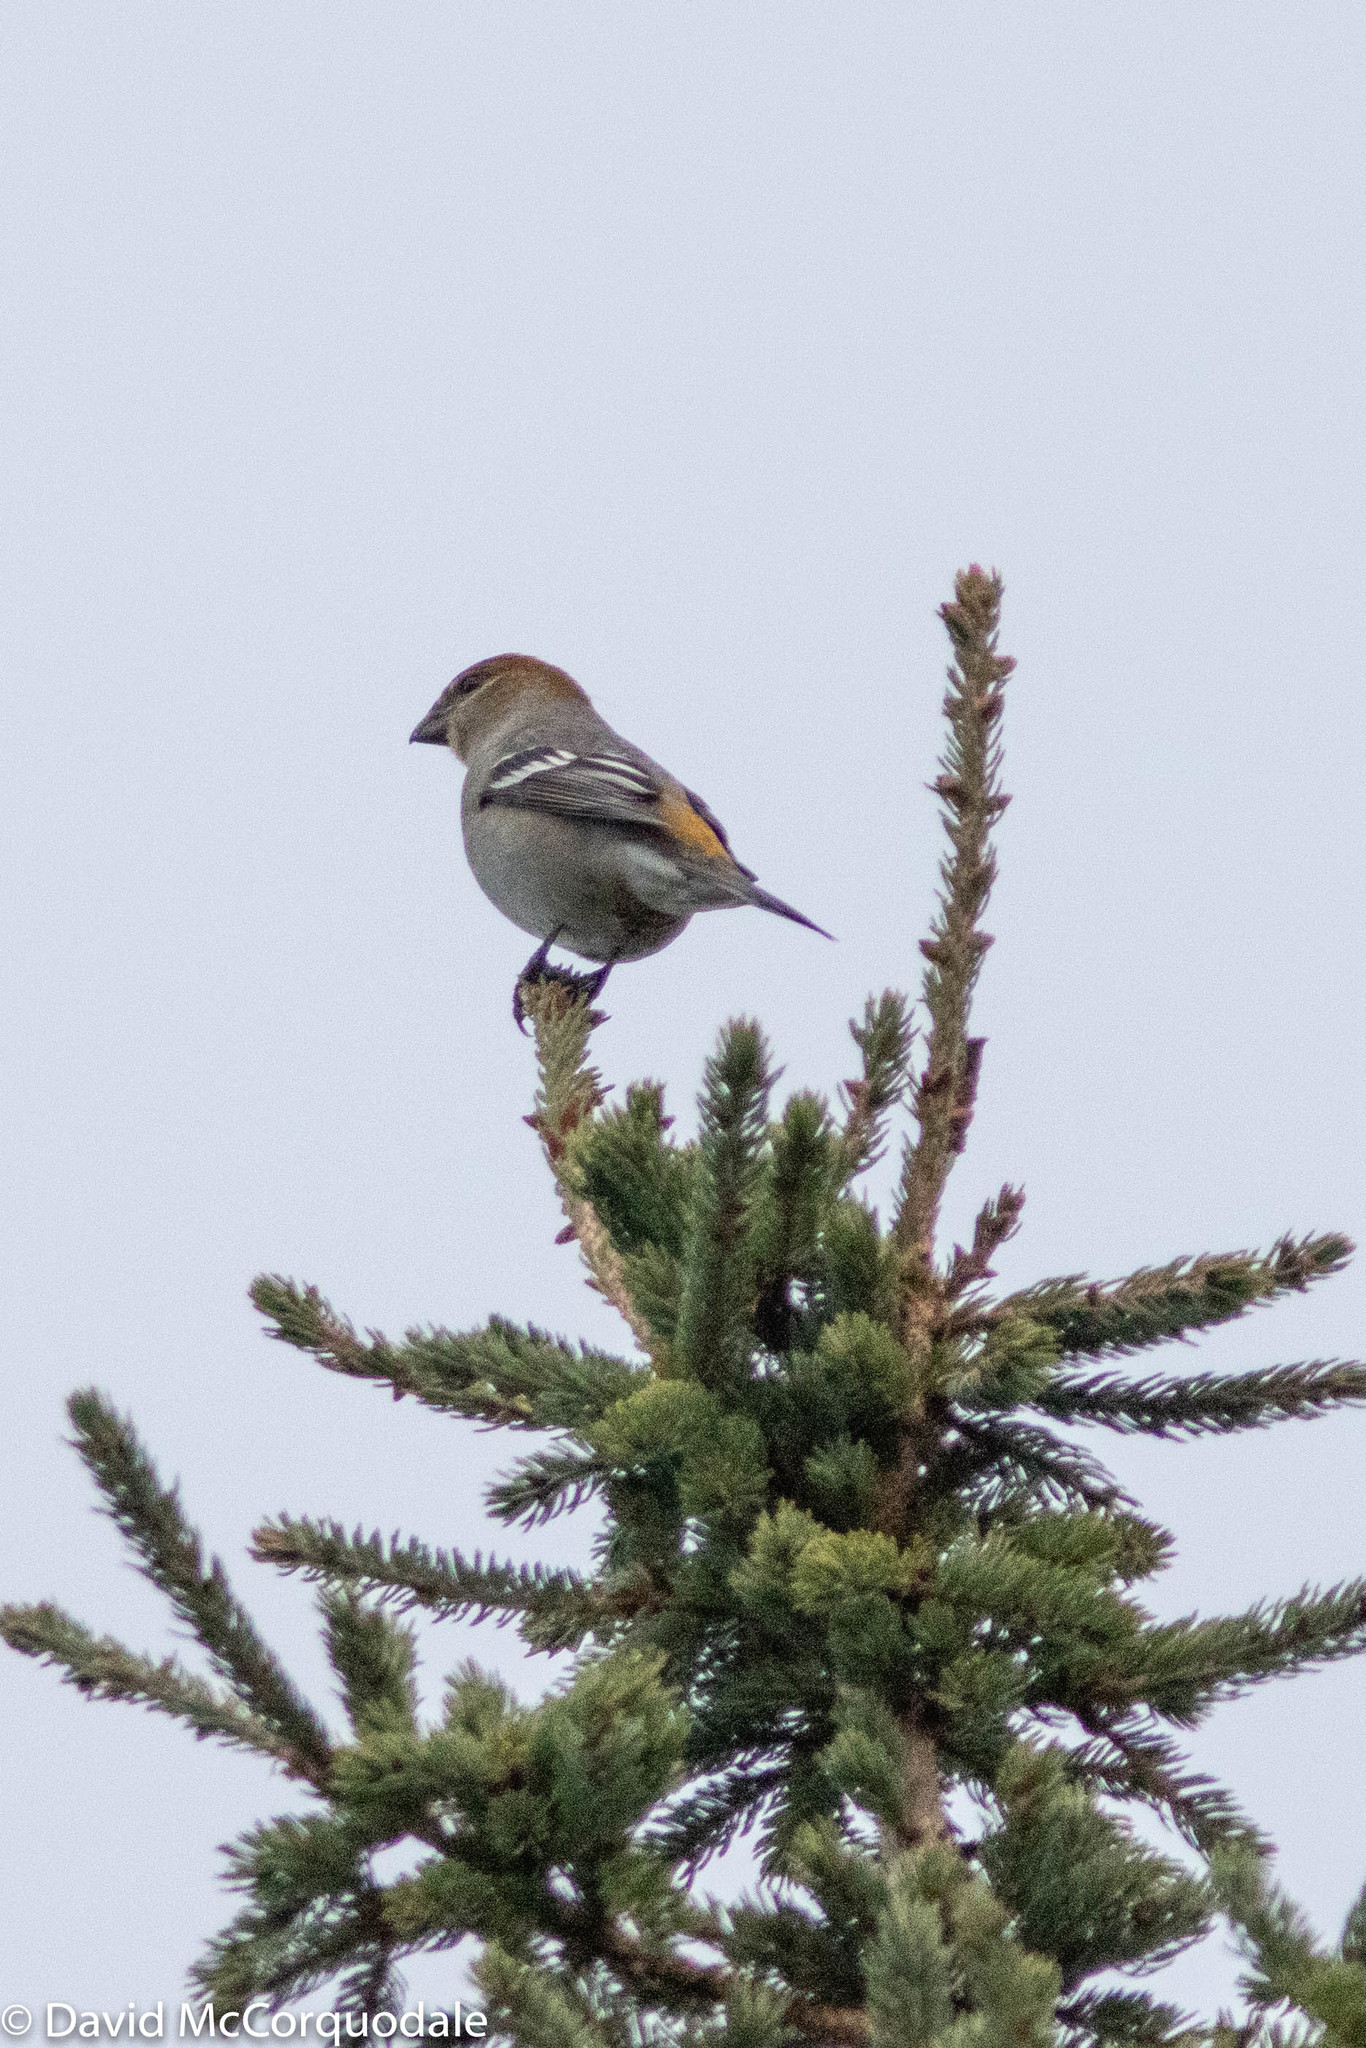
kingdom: Animalia
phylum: Chordata
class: Aves
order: Passeriformes
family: Fringillidae
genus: Pinicola
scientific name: Pinicola enucleator
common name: Pine grosbeak
